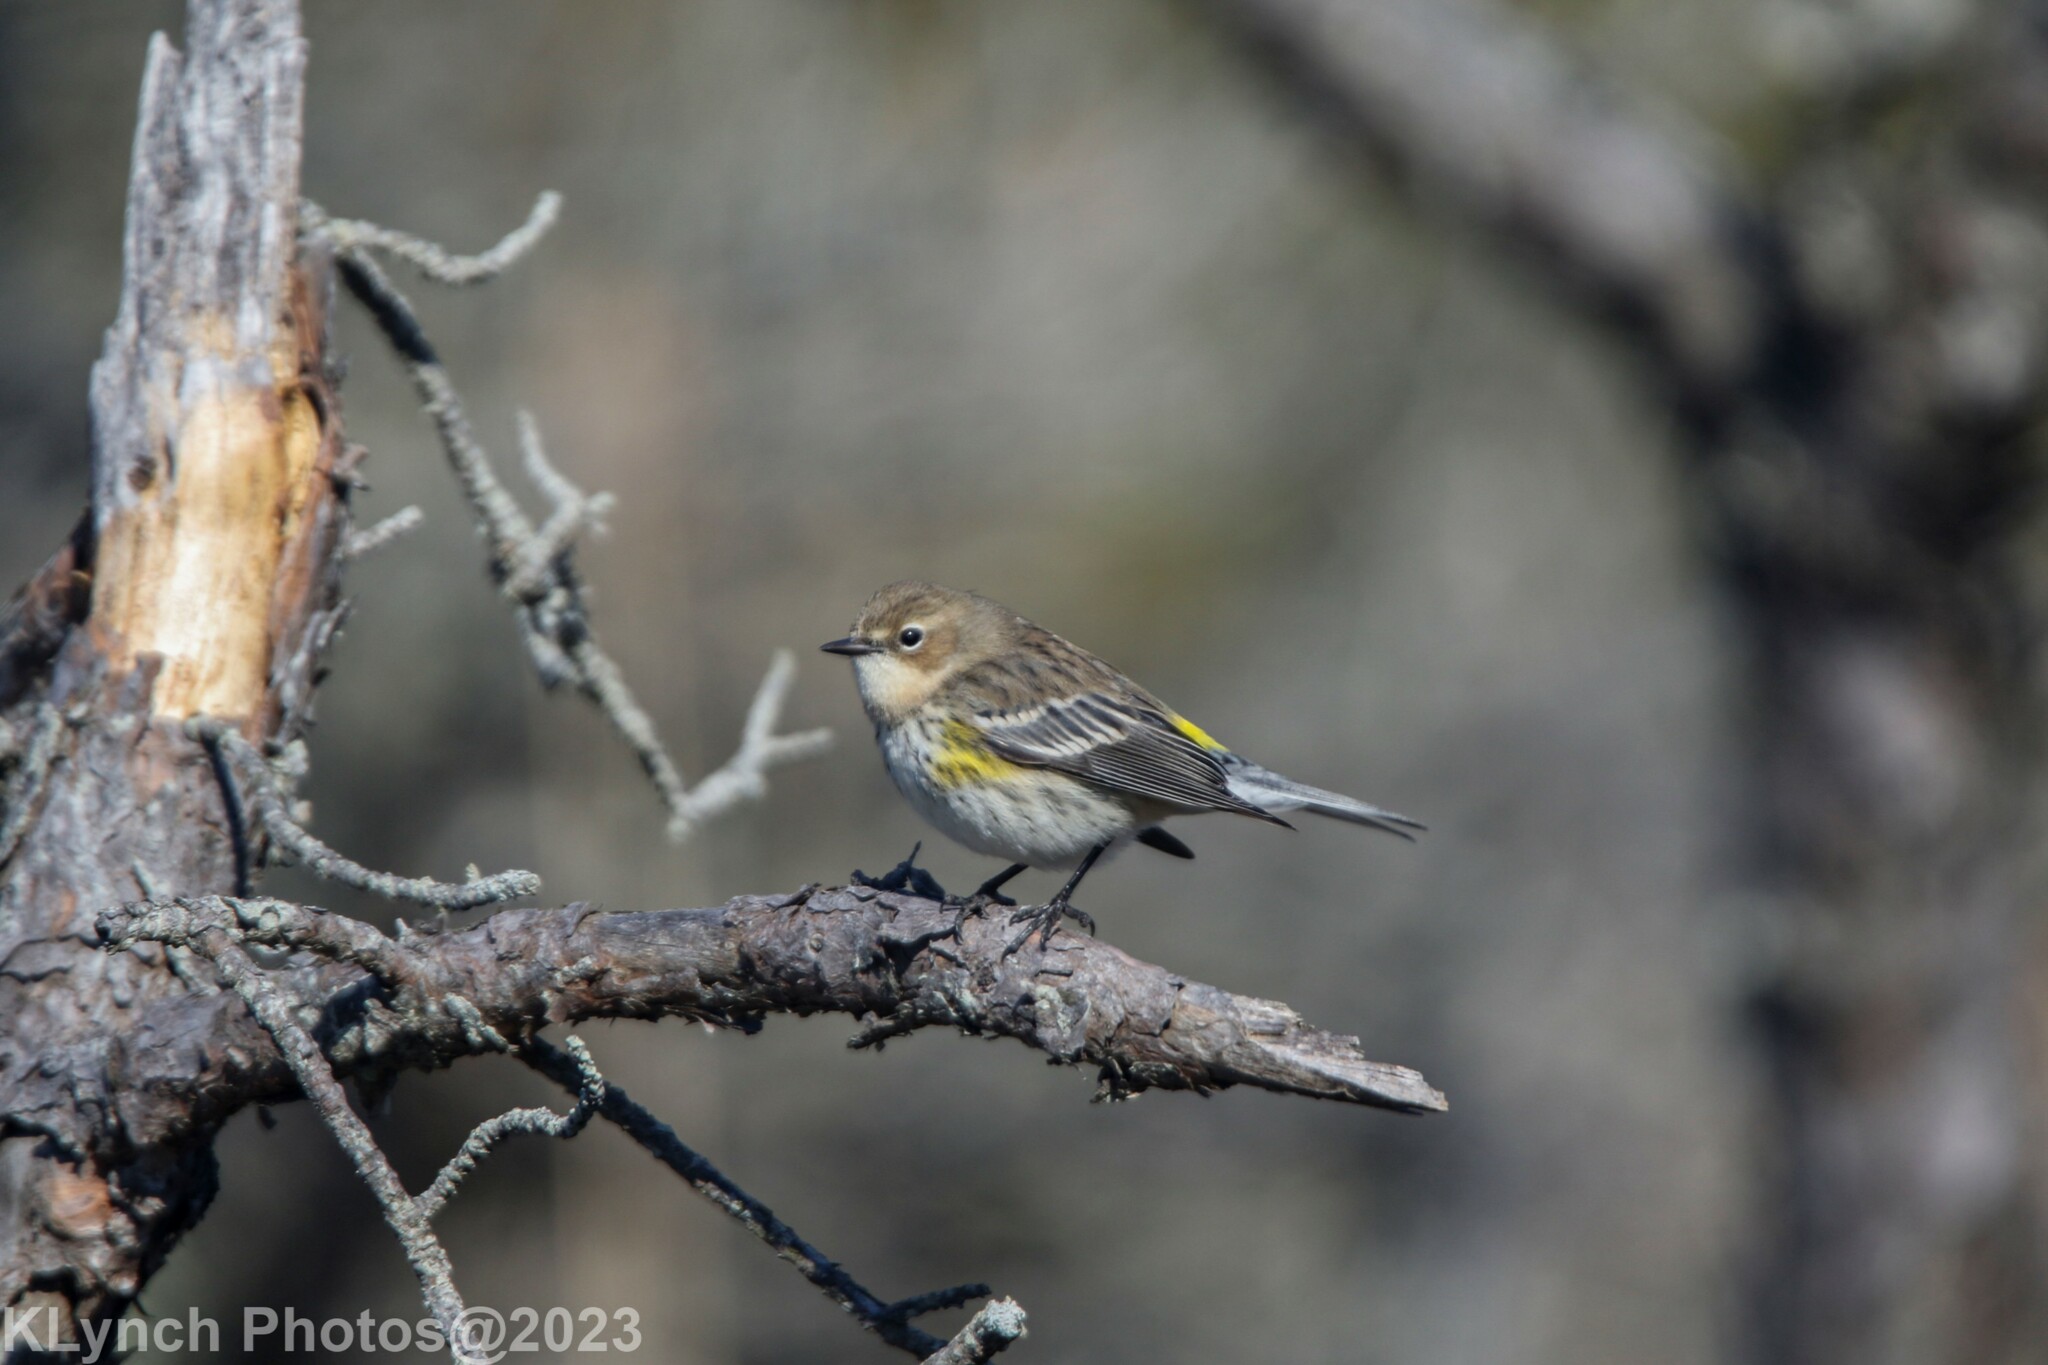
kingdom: Animalia
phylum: Chordata
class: Aves
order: Passeriformes
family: Parulidae
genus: Setophaga
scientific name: Setophaga coronata
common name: Myrtle warbler
